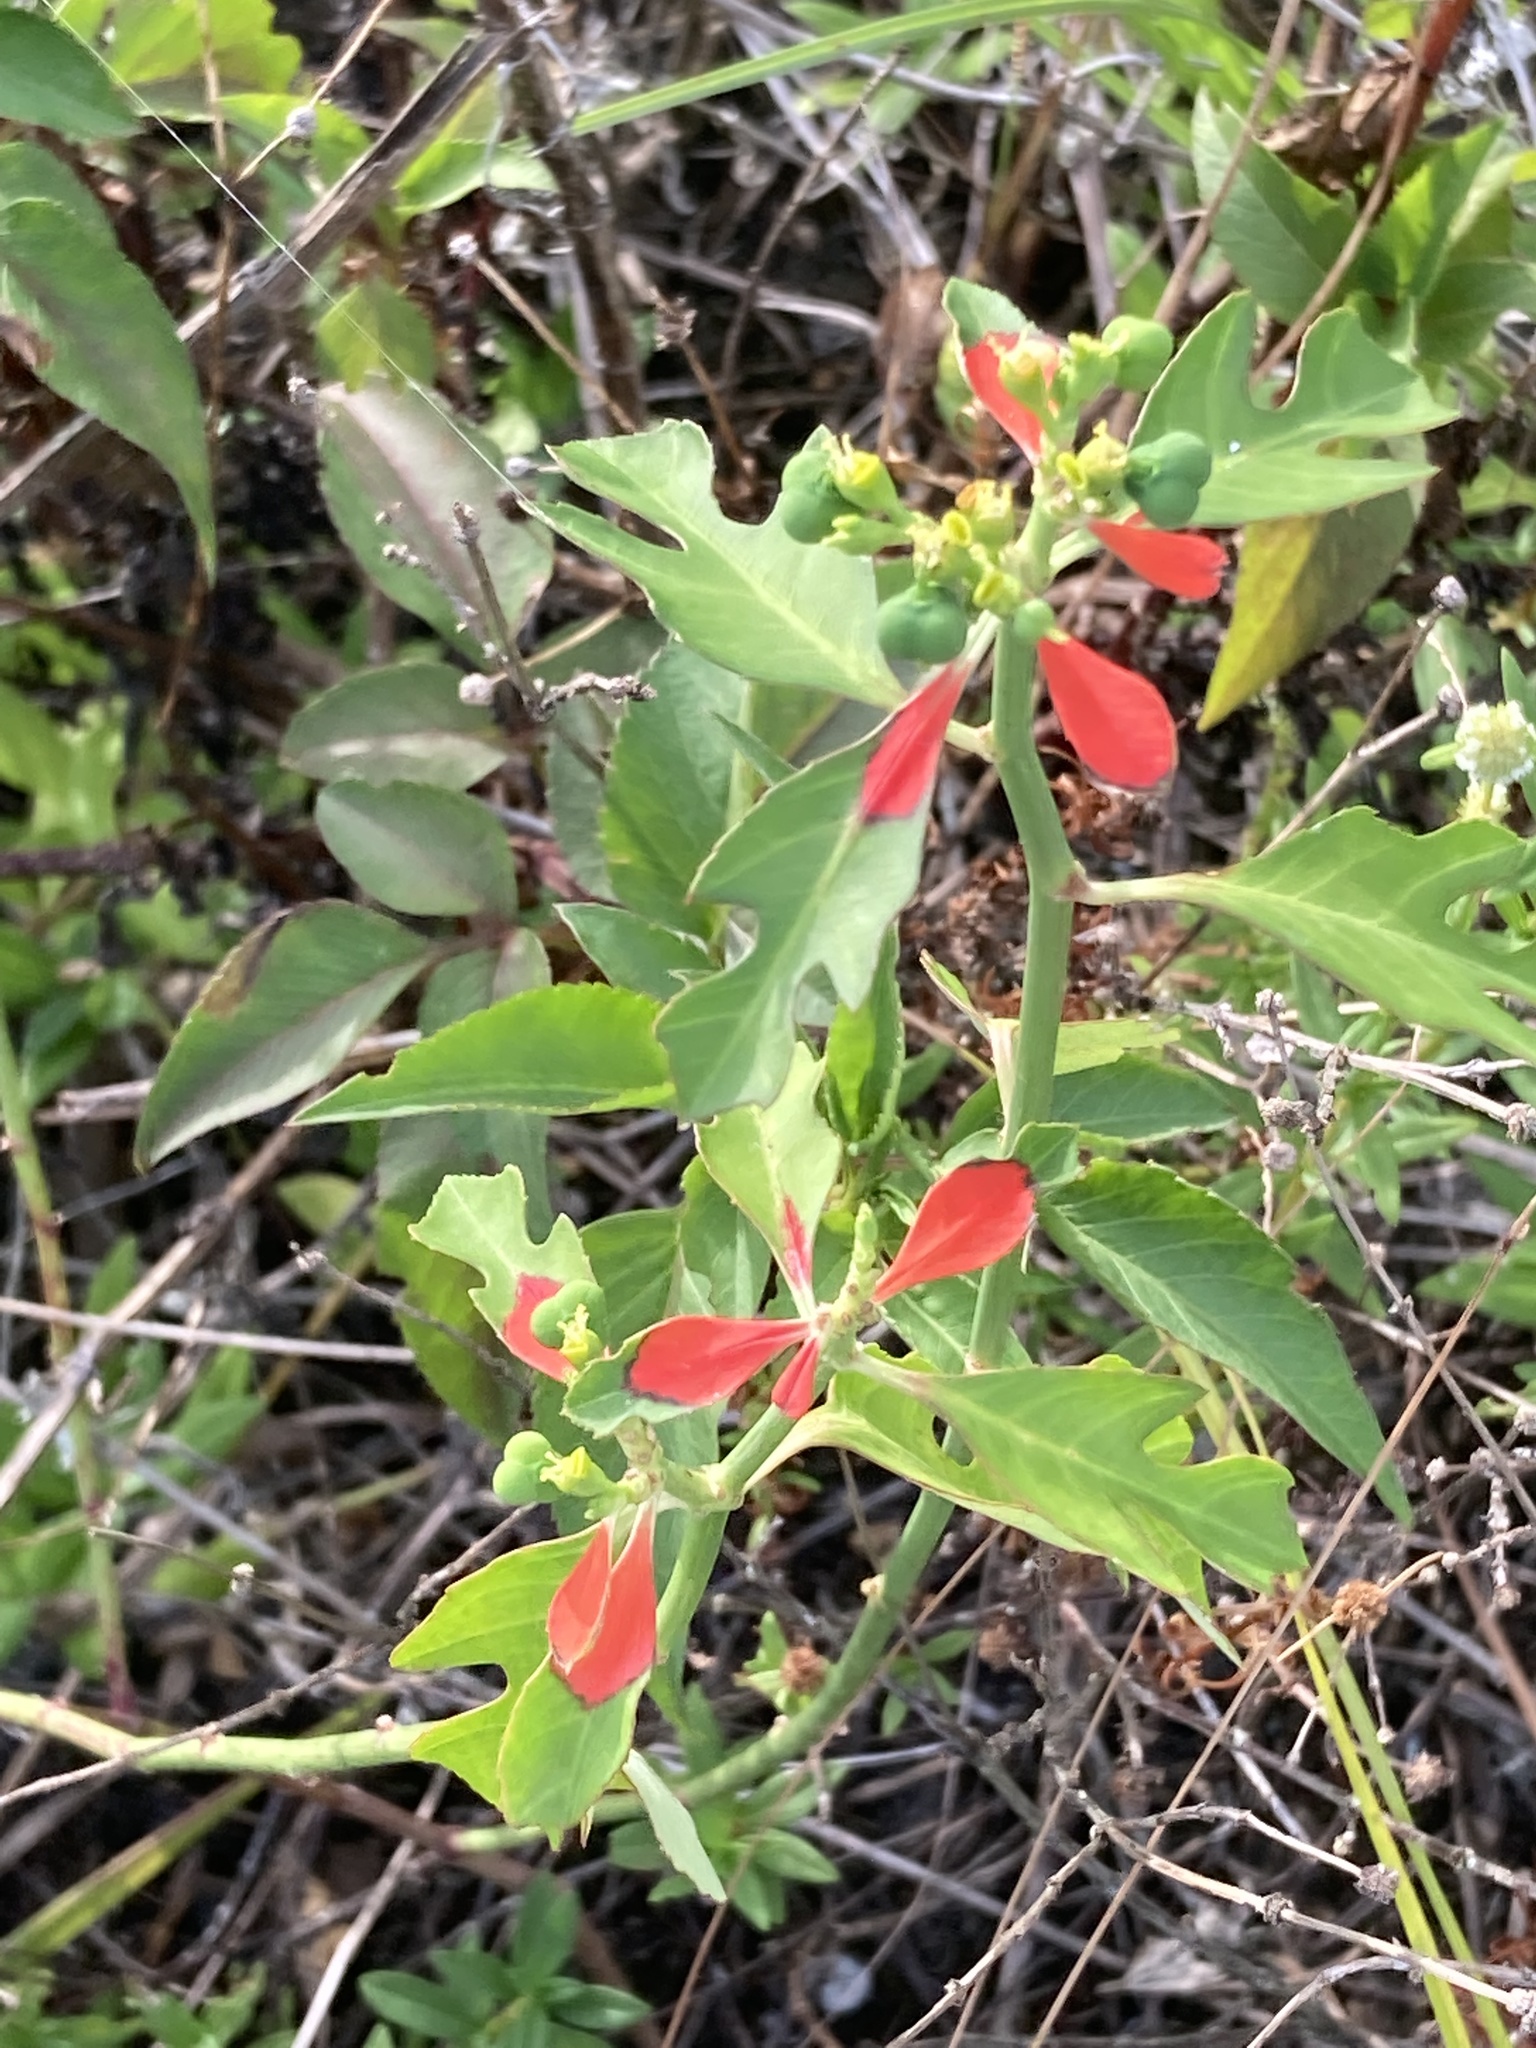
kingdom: Plantae
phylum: Tracheophyta
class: Magnoliopsida
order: Malpighiales
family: Euphorbiaceae
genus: Euphorbia
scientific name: Euphorbia heterophylla
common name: Mexican fireplant
